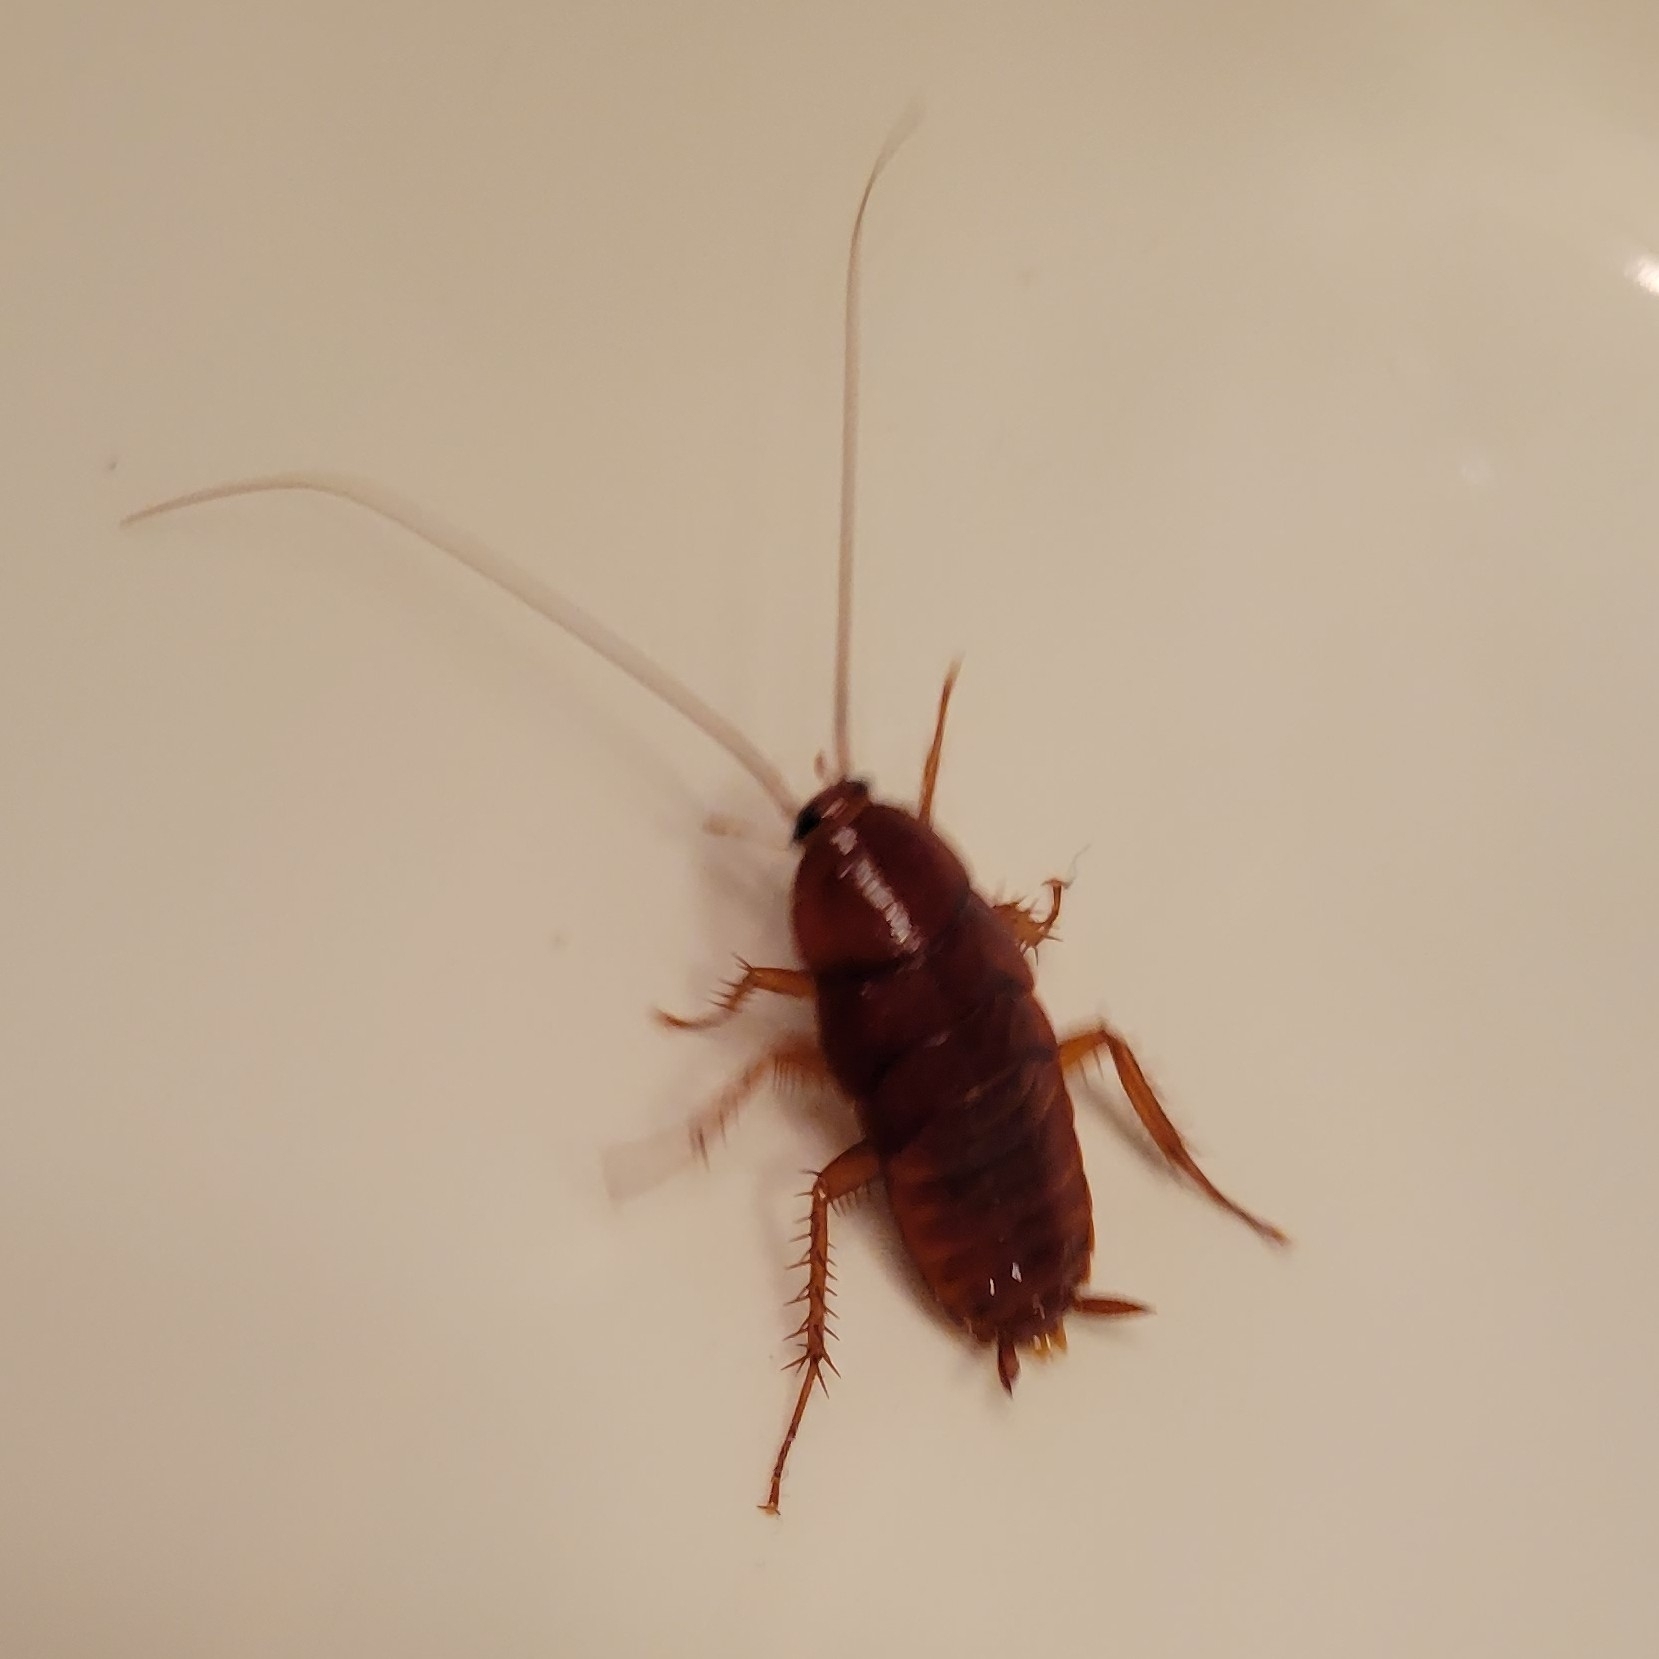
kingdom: Animalia
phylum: Arthropoda
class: Insecta
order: Blattodea
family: Blattidae
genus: Periplaneta
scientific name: Periplaneta fuliginosa
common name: Smokeybrown cockroad
